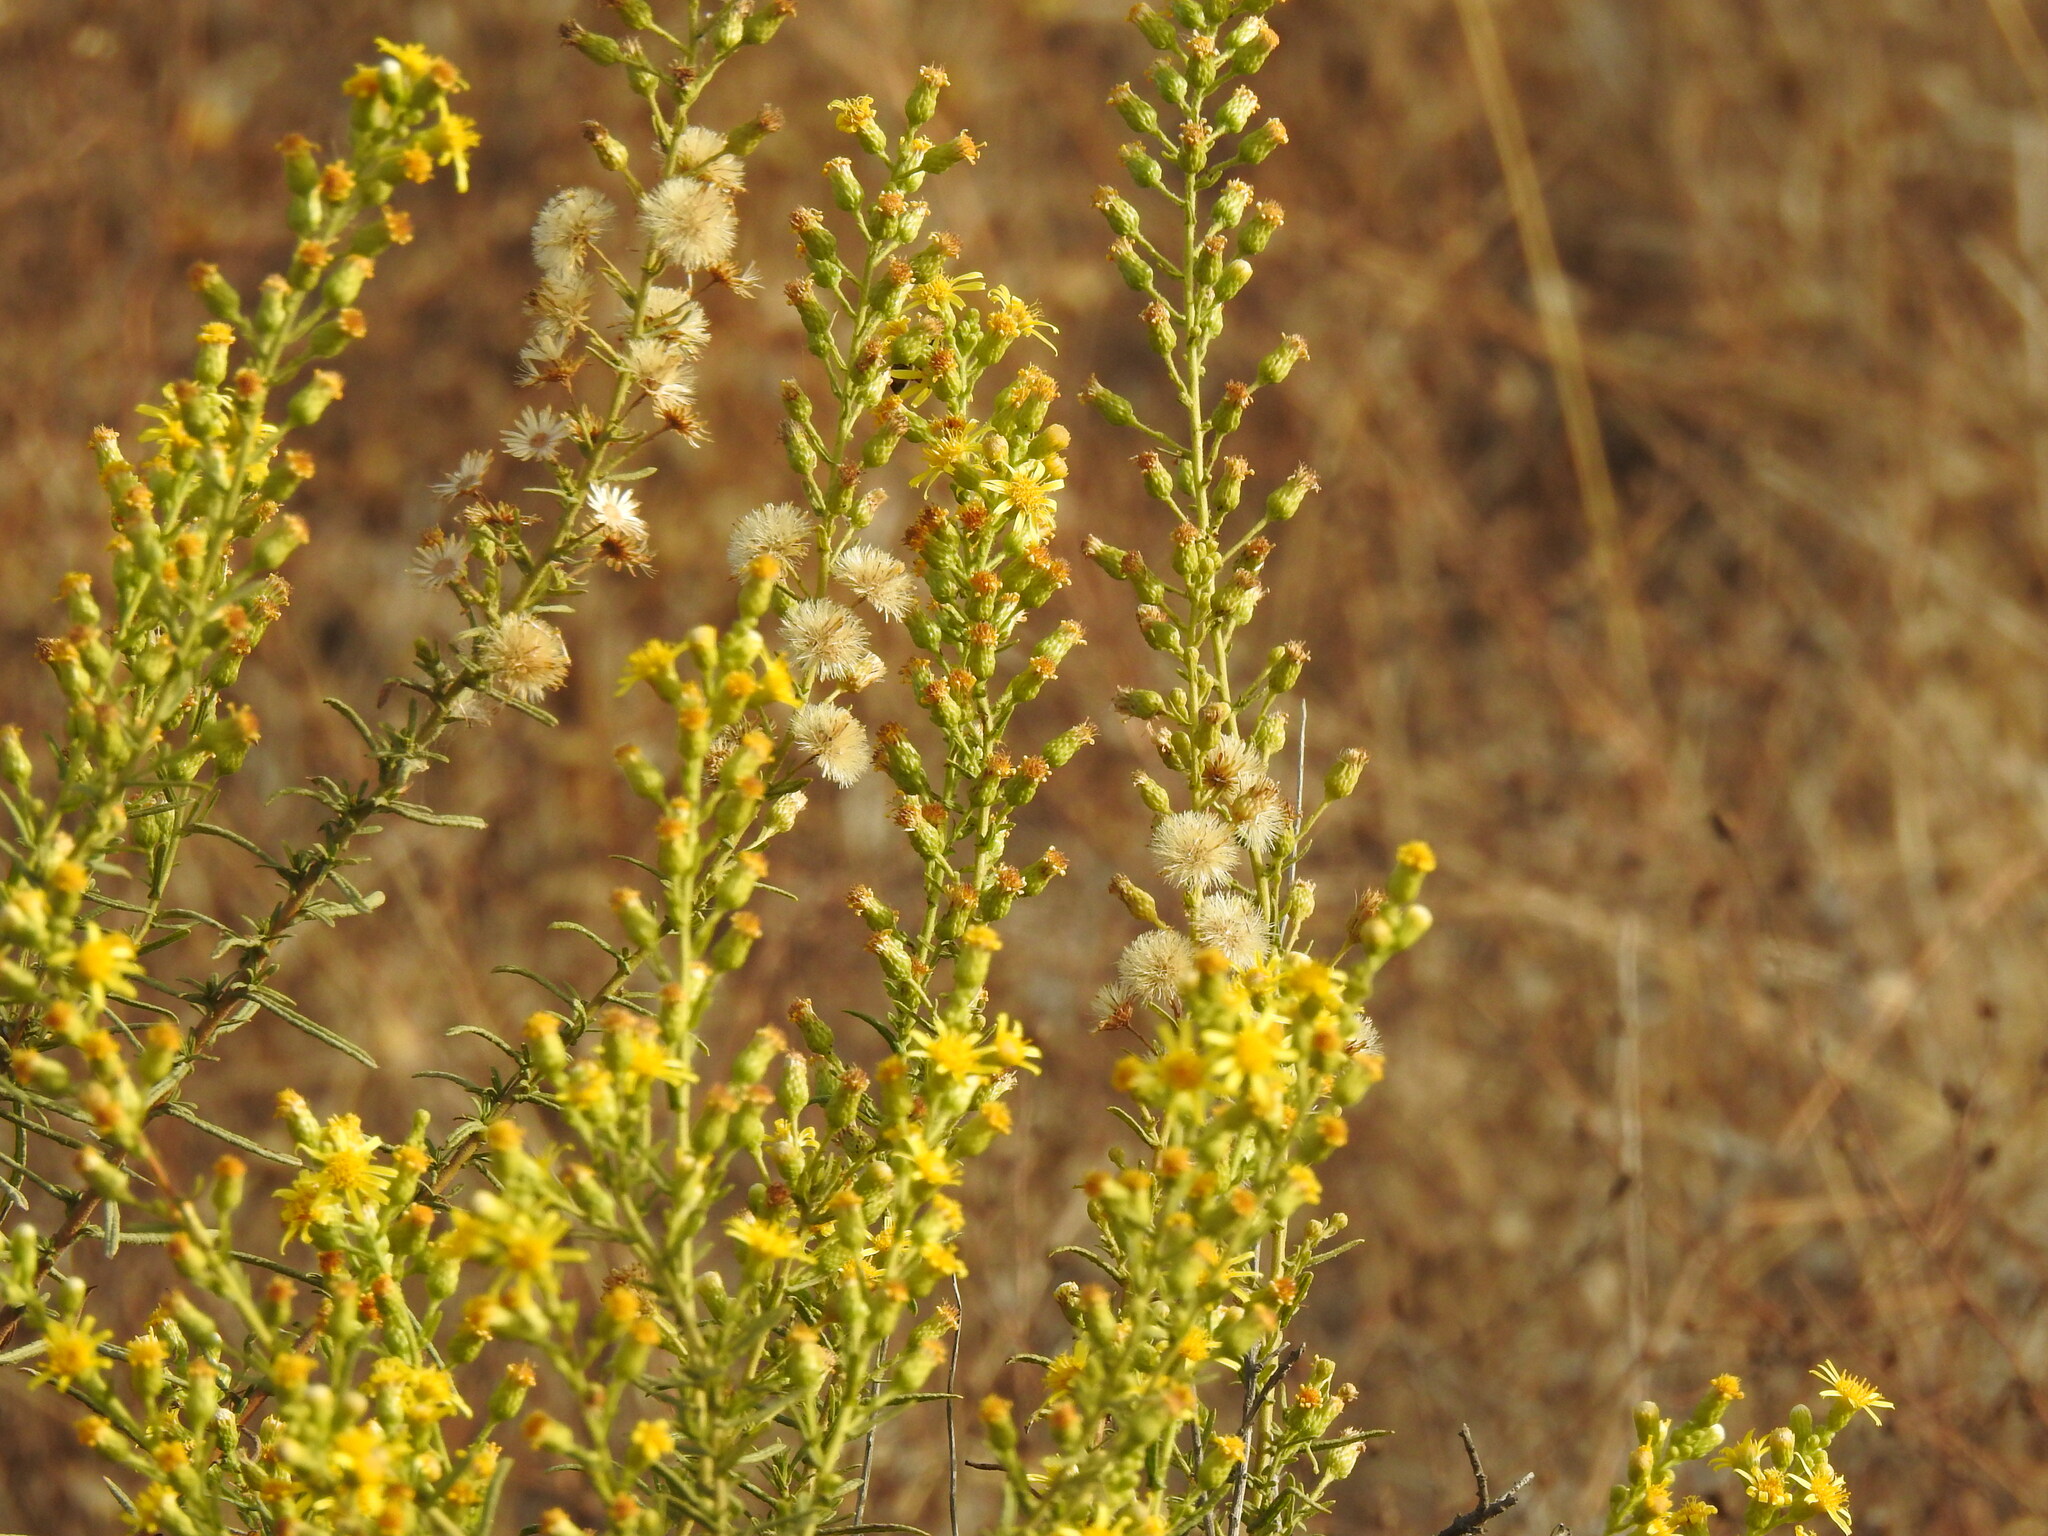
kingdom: Plantae
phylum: Tracheophyta
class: Magnoliopsida
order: Asterales
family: Asteraceae
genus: Dittrichia
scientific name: Dittrichia viscosa
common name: Woody fleabane
